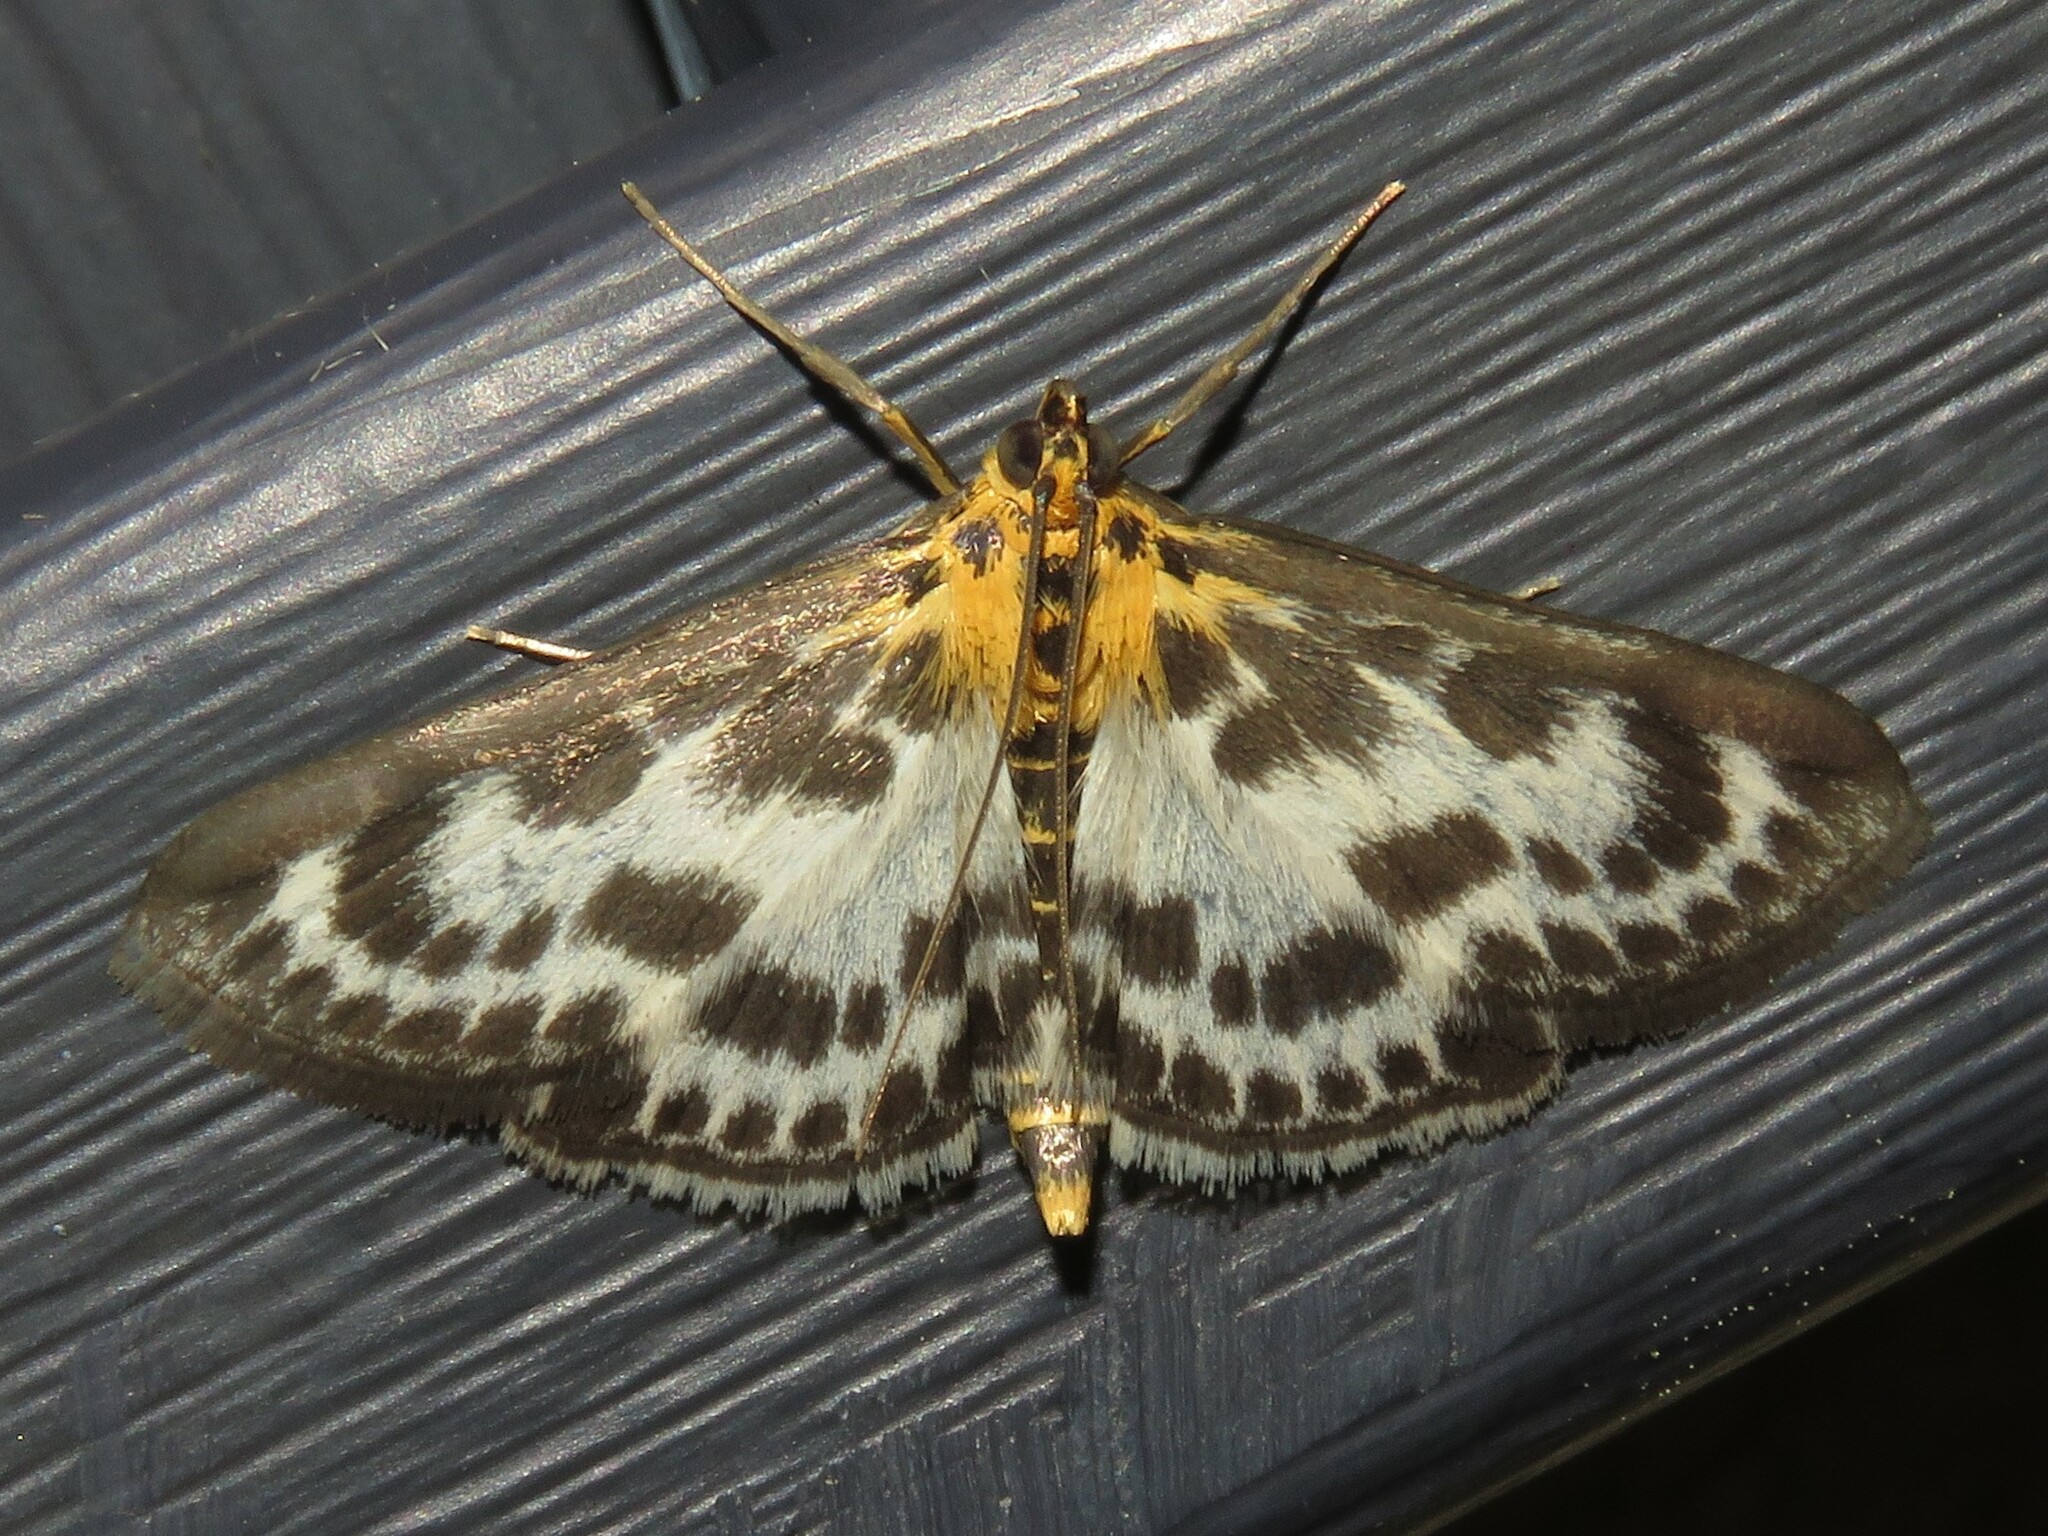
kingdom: Animalia
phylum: Arthropoda
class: Insecta
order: Lepidoptera
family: Crambidae
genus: Anania
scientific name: Anania hortulata
